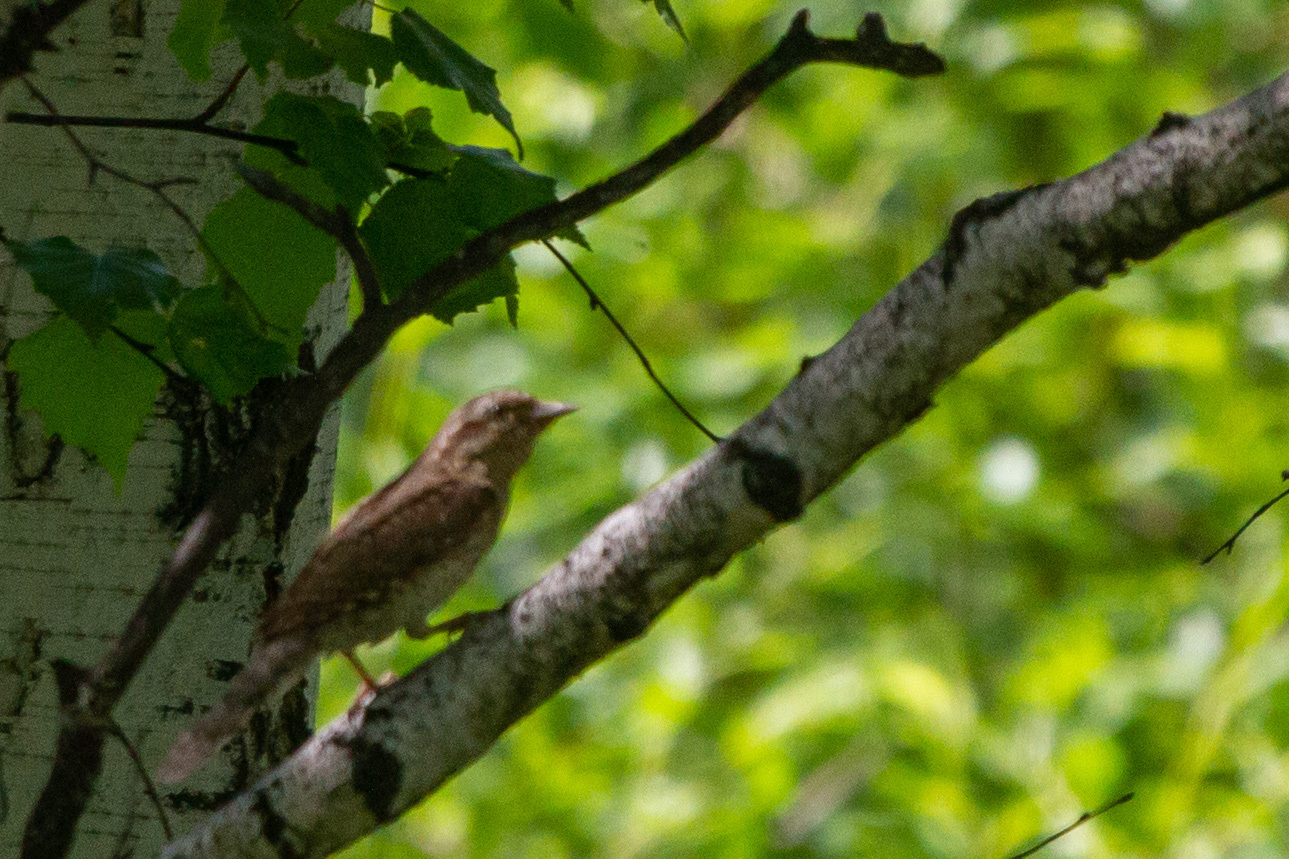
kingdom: Animalia
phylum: Chordata
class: Aves
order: Passeriformes
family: Muscicapidae
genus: Muscicapa
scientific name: Muscicapa striata
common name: Spotted flycatcher
